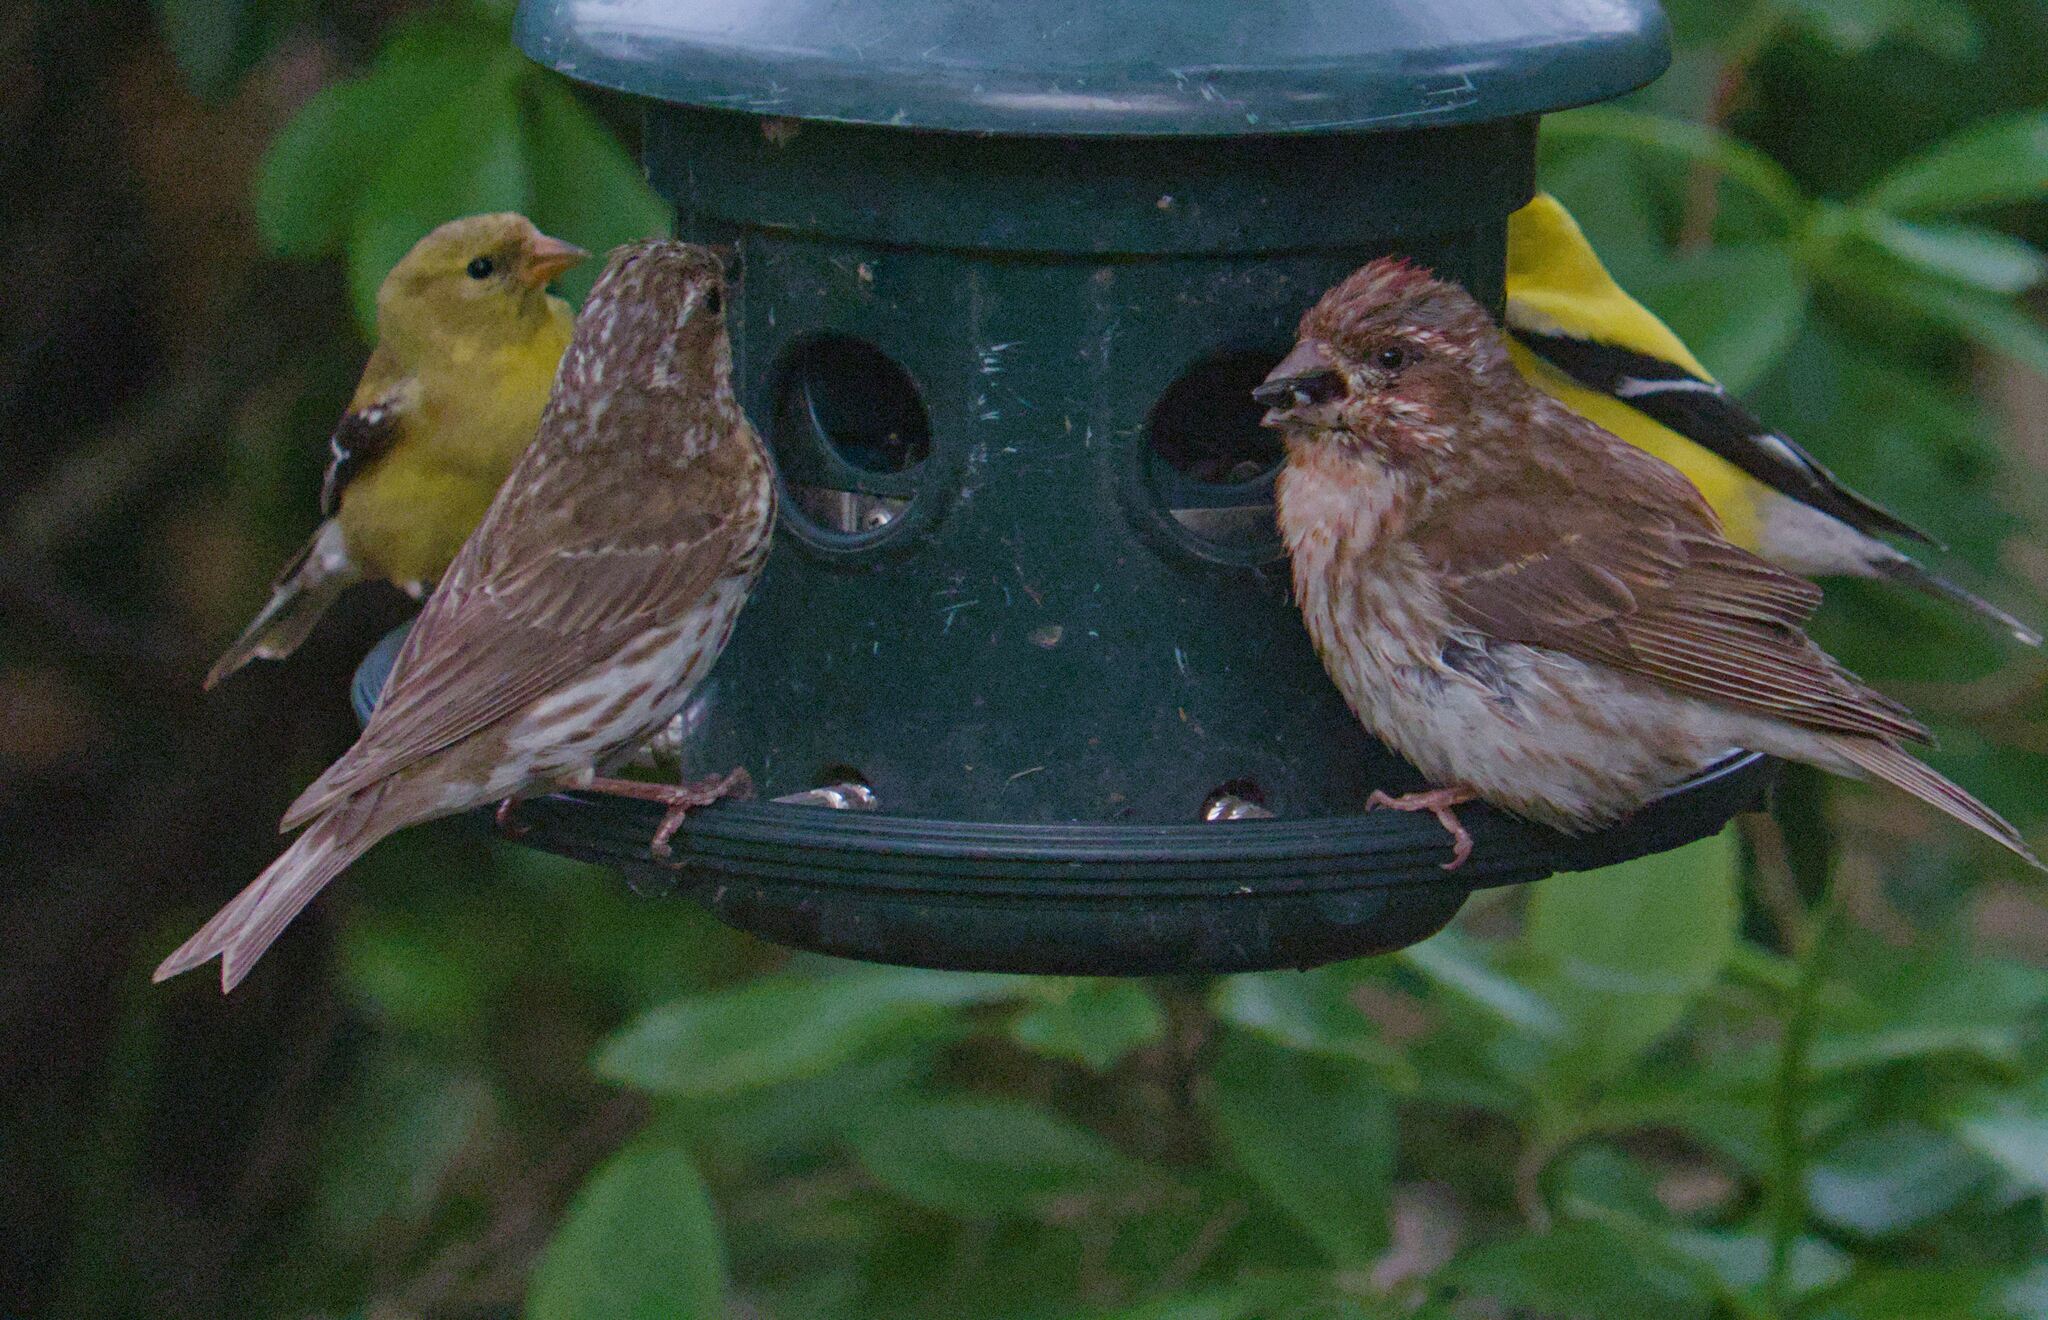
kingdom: Animalia
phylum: Chordata
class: Aves
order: Passeriformes
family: Fringillidae
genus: Haemorhous
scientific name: Haemorhous purpureus
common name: Purple finch
